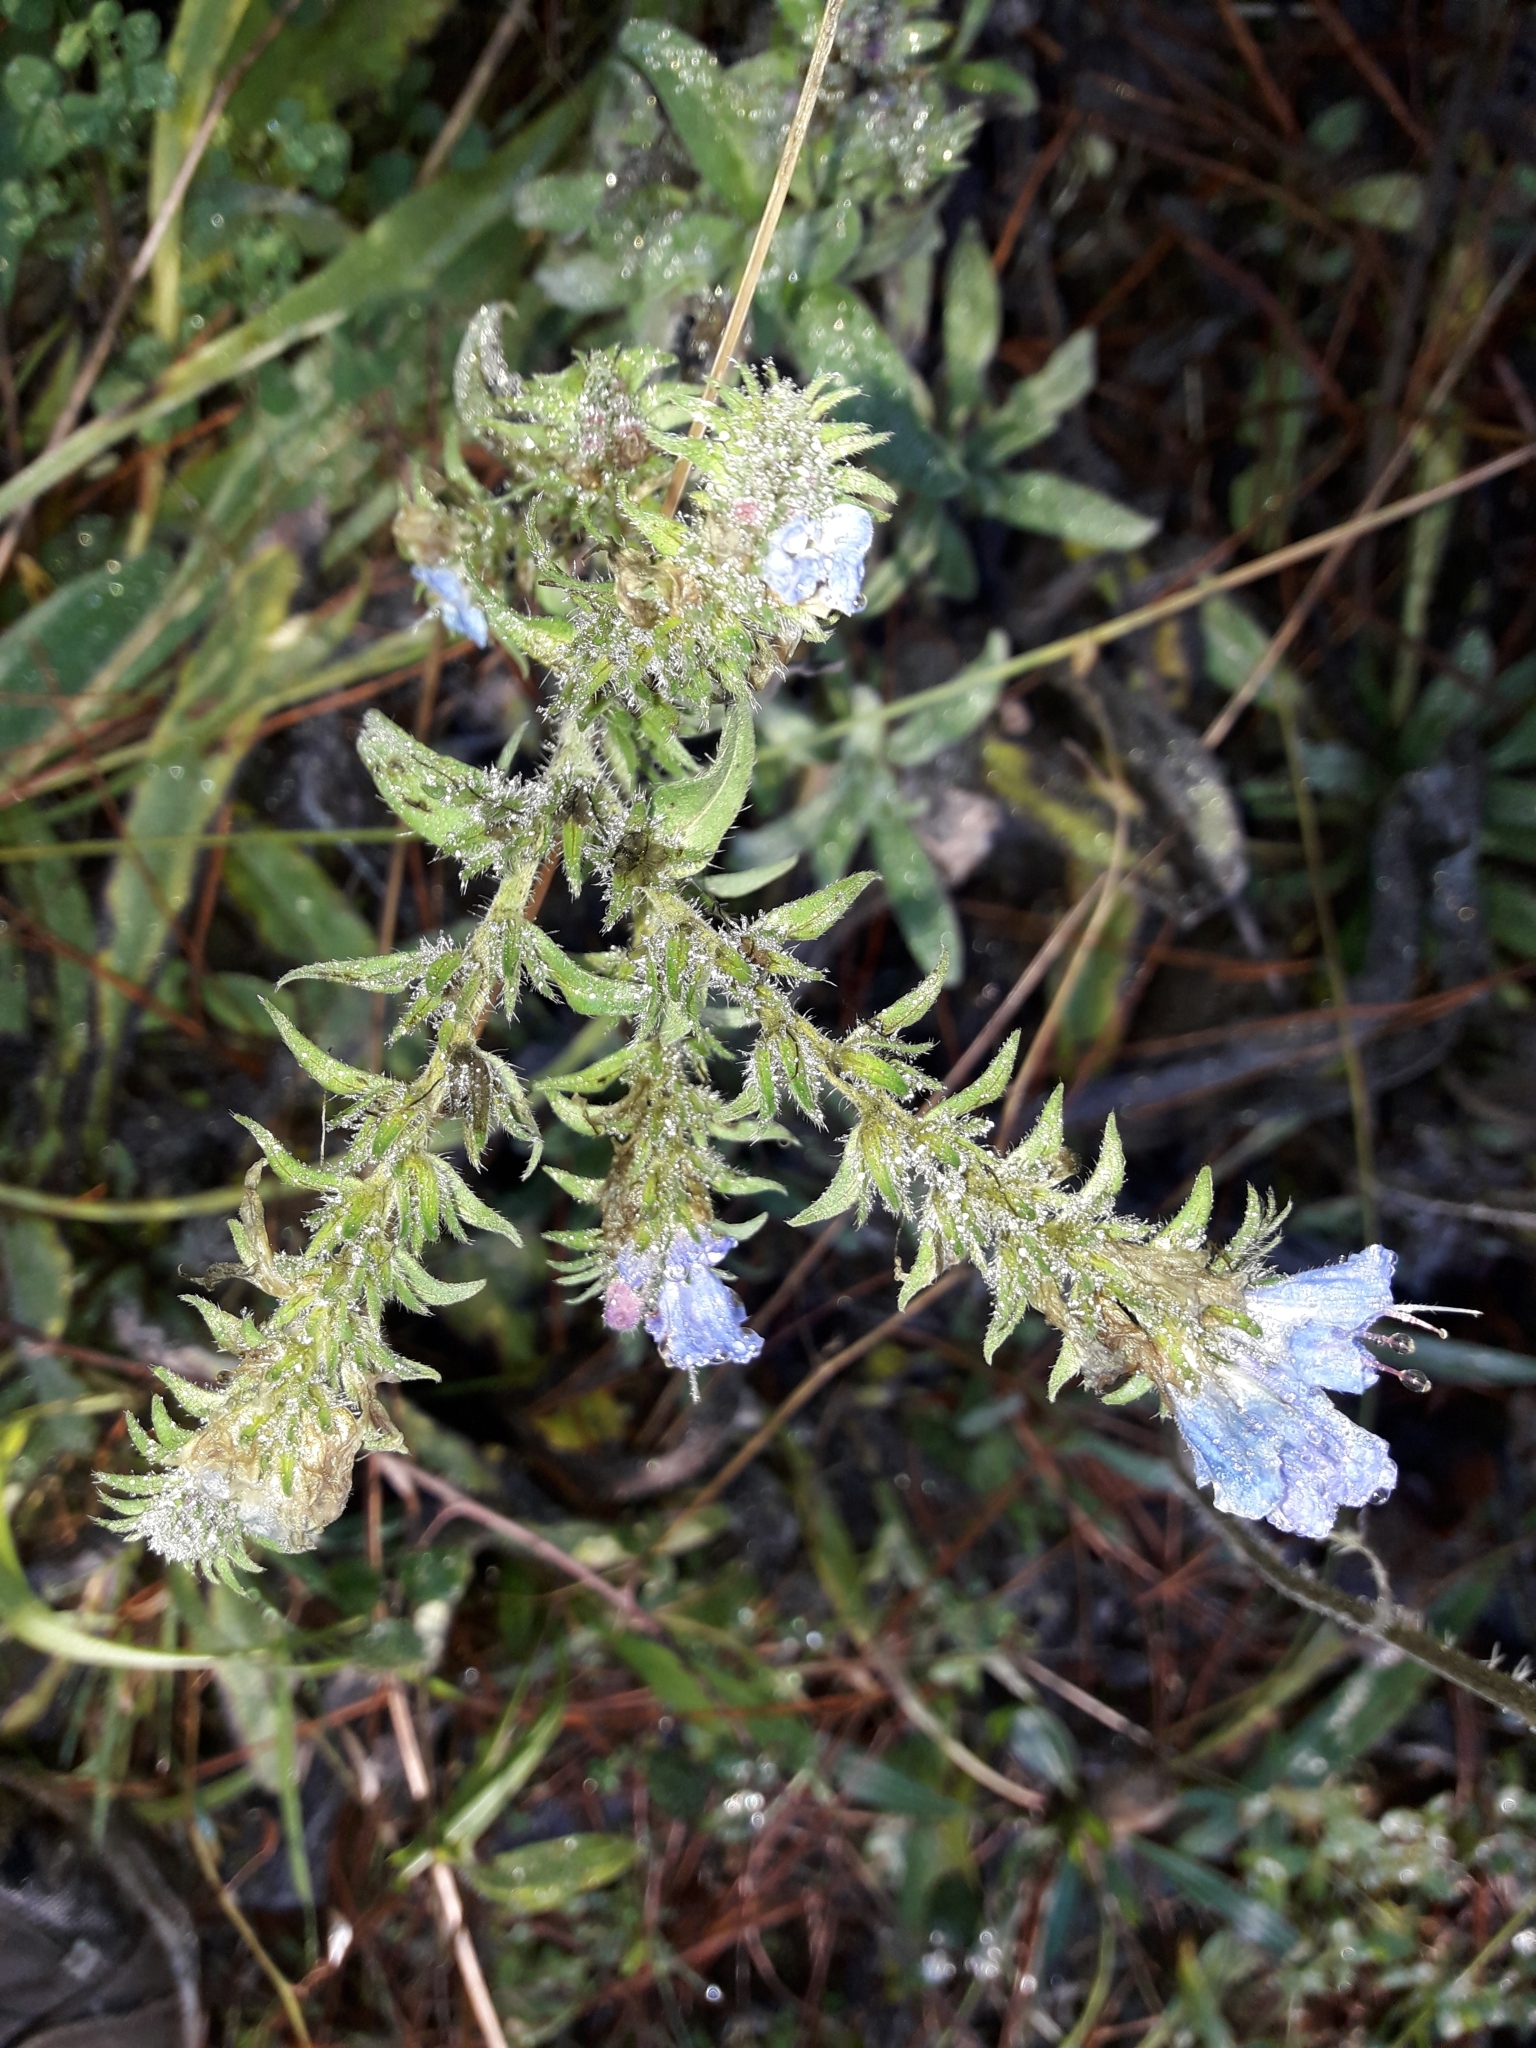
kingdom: Plantae
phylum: Tracheophyta
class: Magnoliopsida
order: Boraginales
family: Boraginaceae
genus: Echium
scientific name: Echium vulgare
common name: Common viper's bugloss
